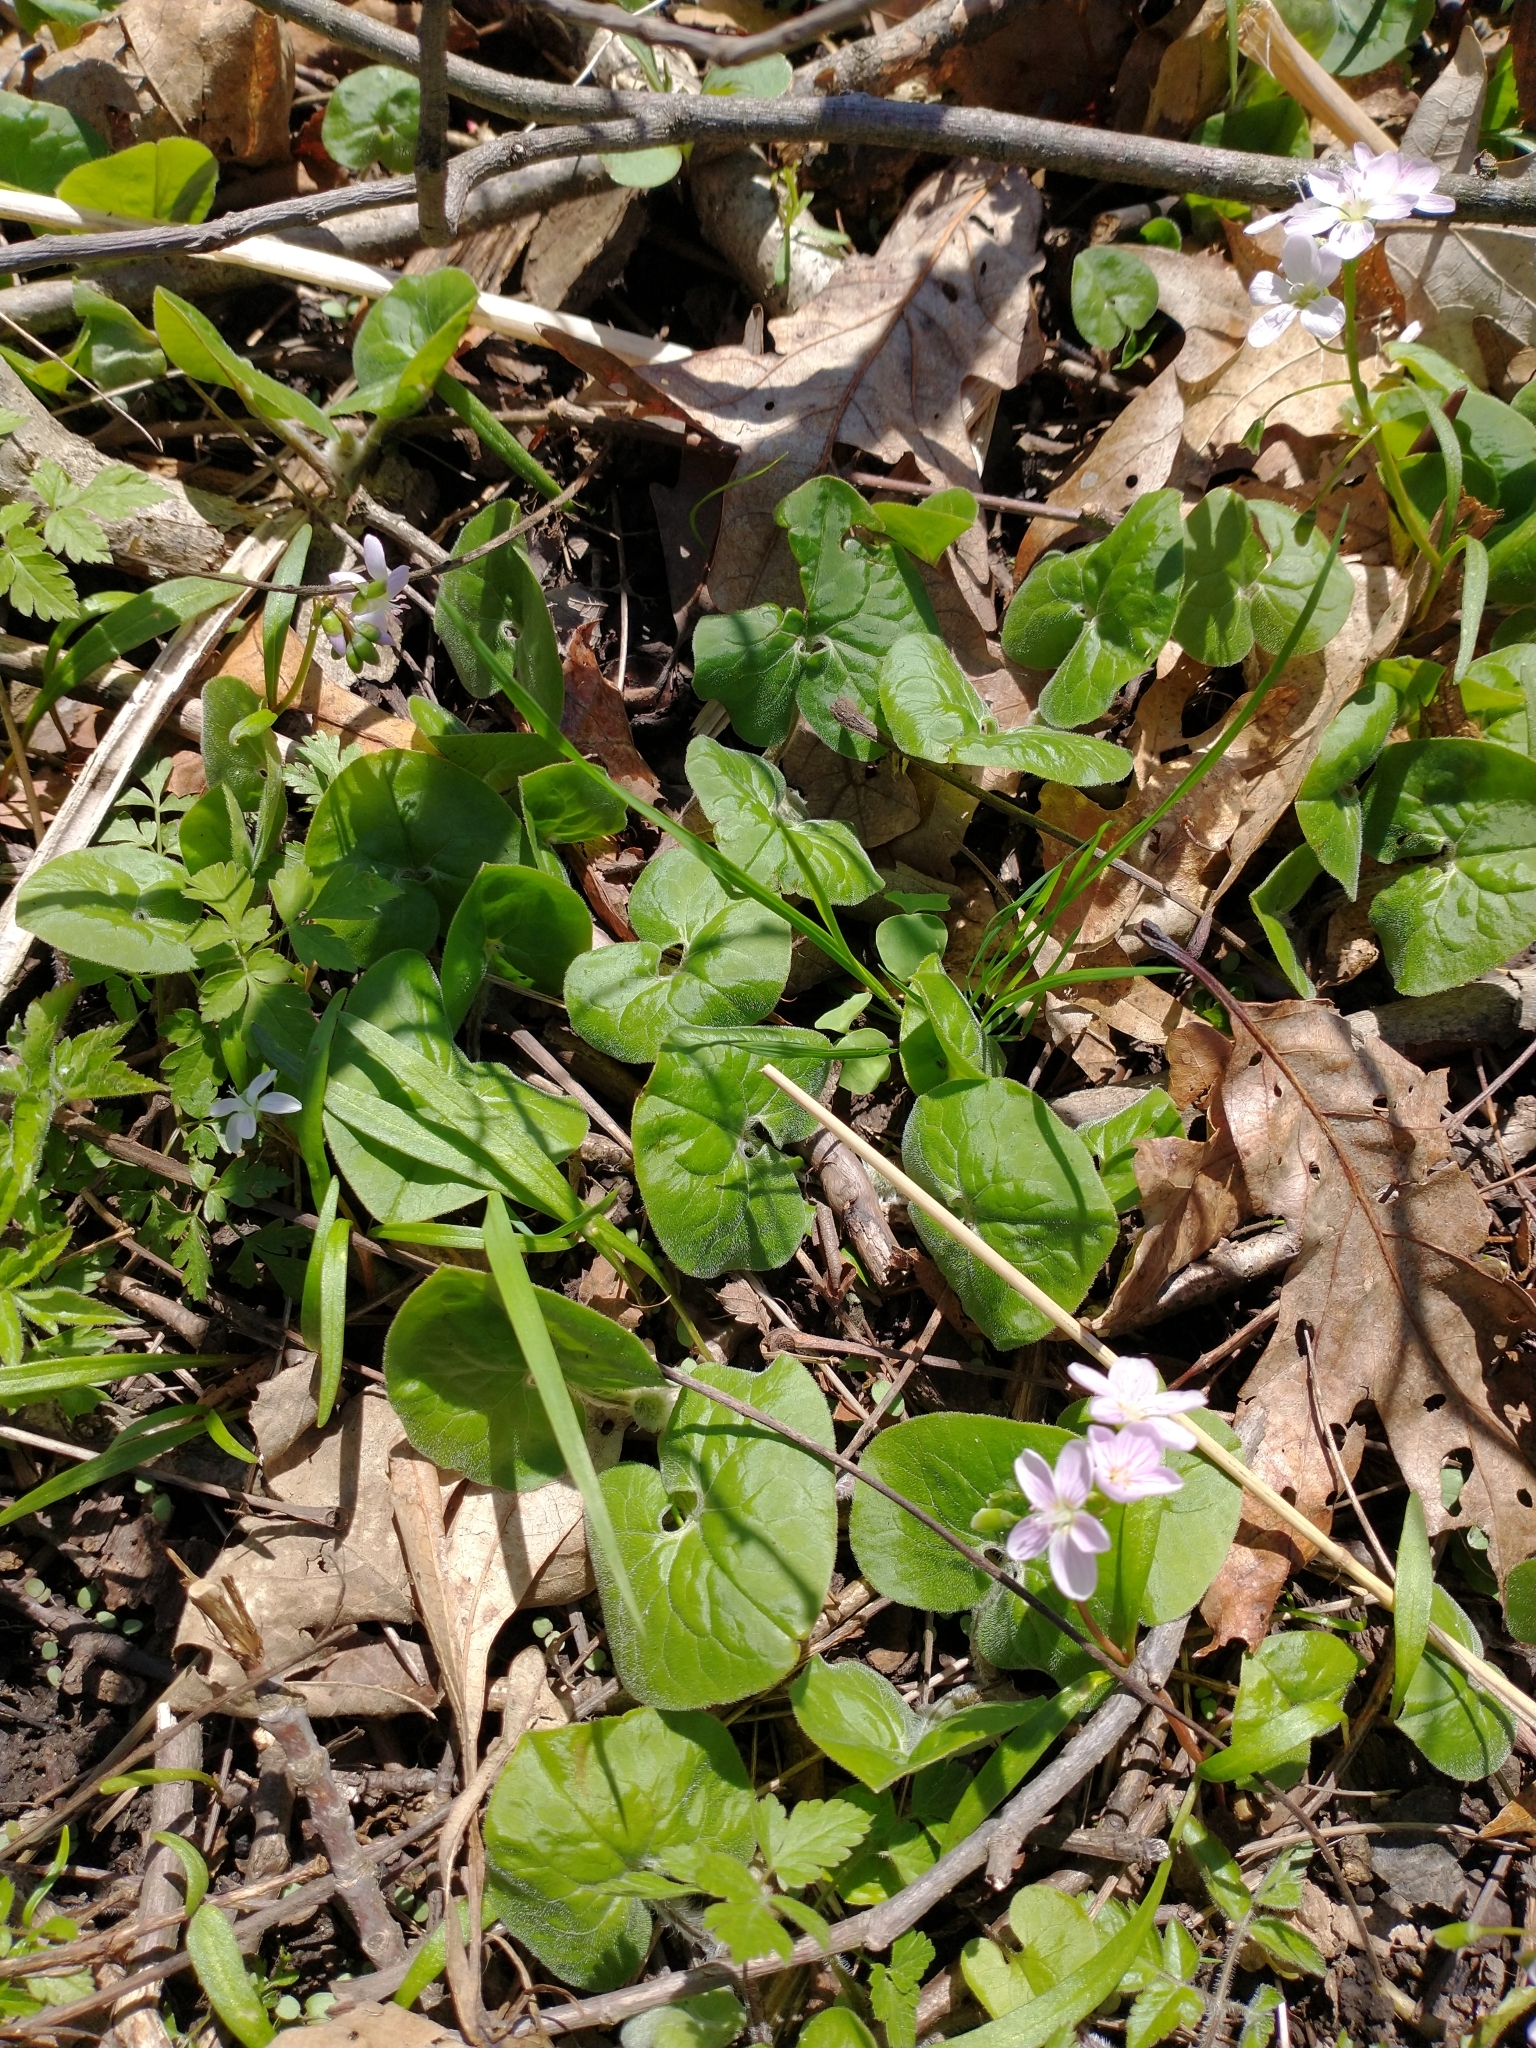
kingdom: Plantae
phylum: Tracheophyta
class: Magnoliopsida
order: Piperales
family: Aristolochiaceae
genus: Asarum
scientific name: Asarum canadense
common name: Wild ginger
